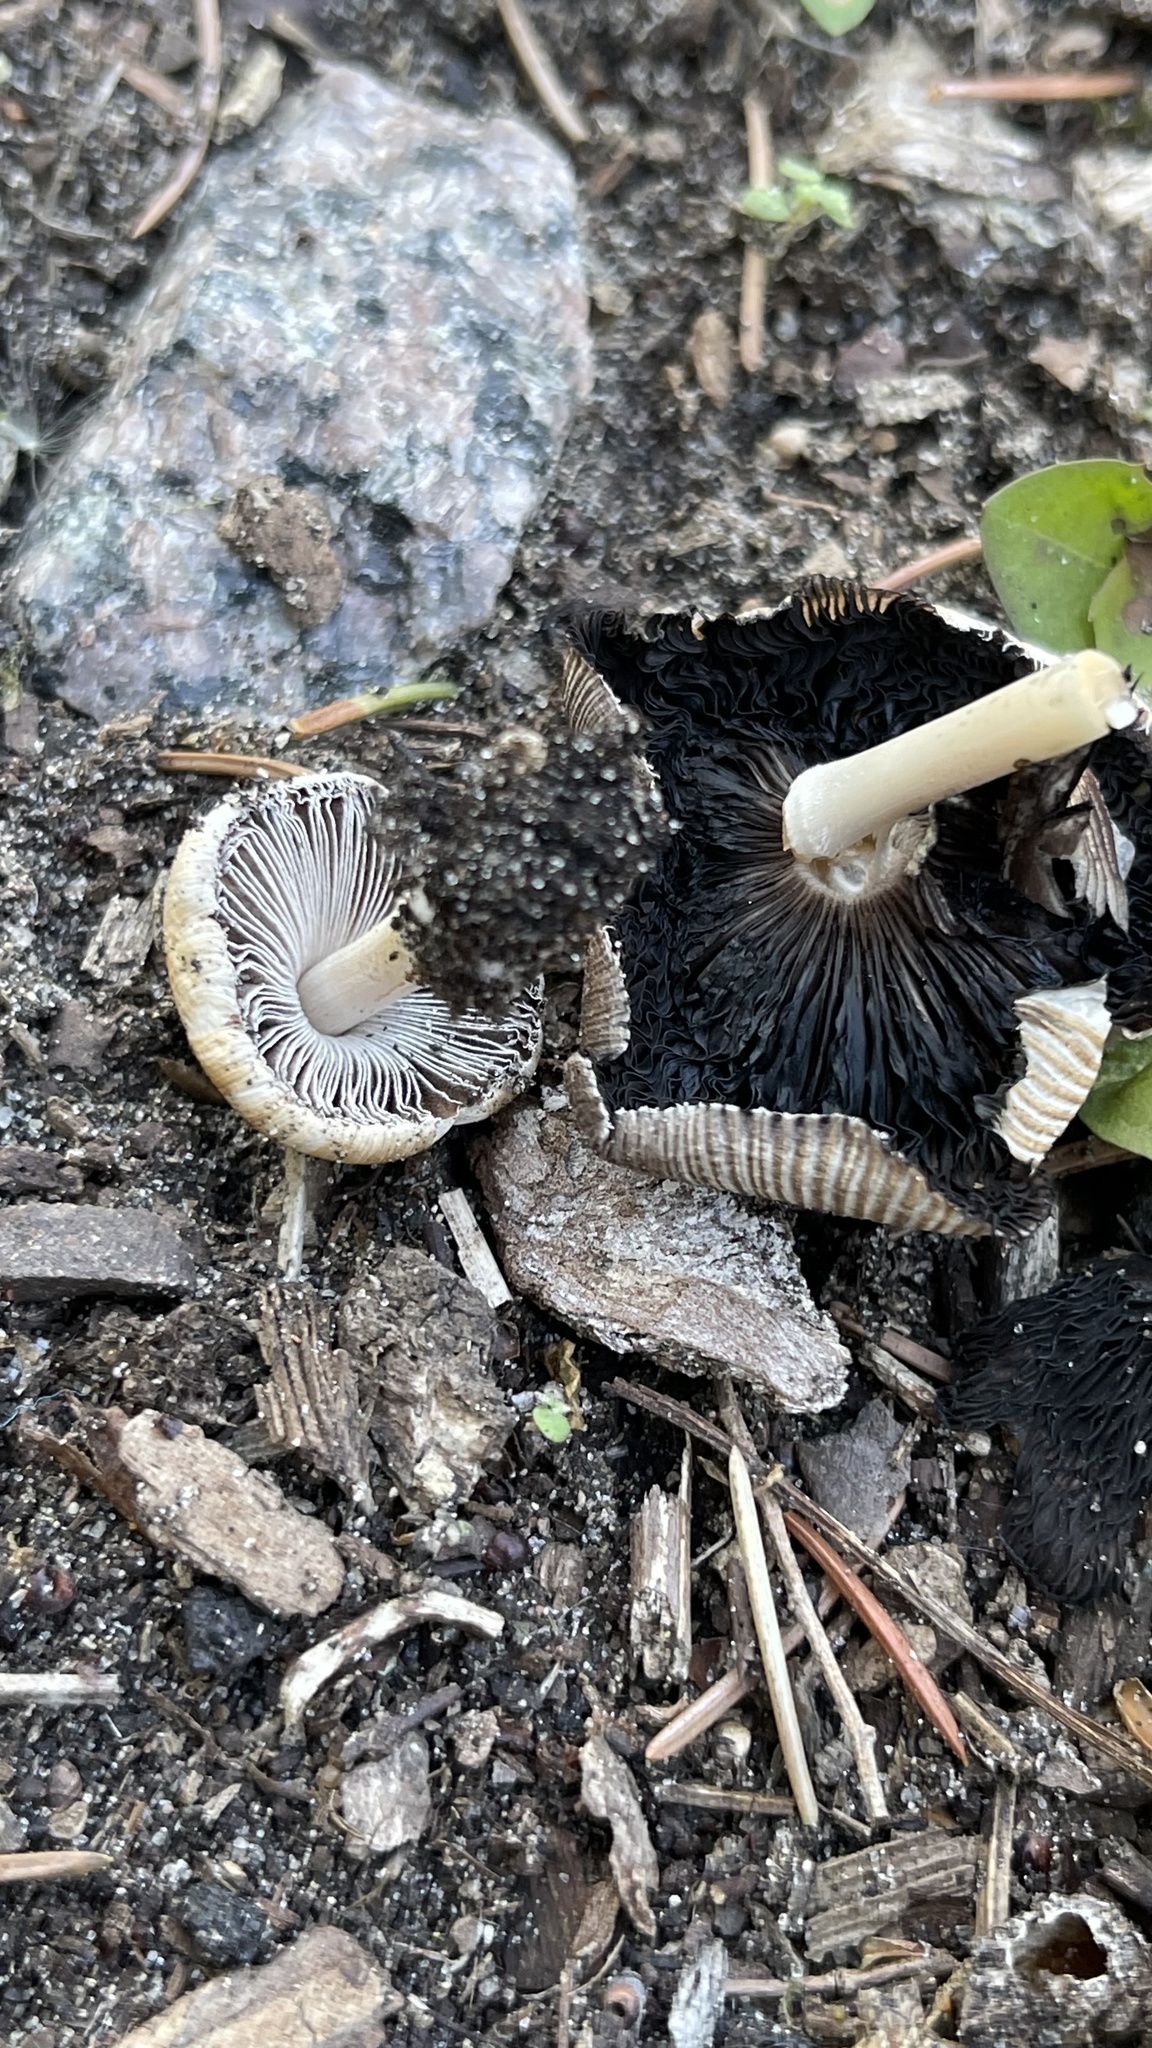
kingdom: Fungi
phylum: Basidiomycota
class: Agaricomycetes
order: Agaricales
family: Psathyrellaceae
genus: Coprinellus
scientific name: Coprinellus micaceus
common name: Glistening ink-cap
